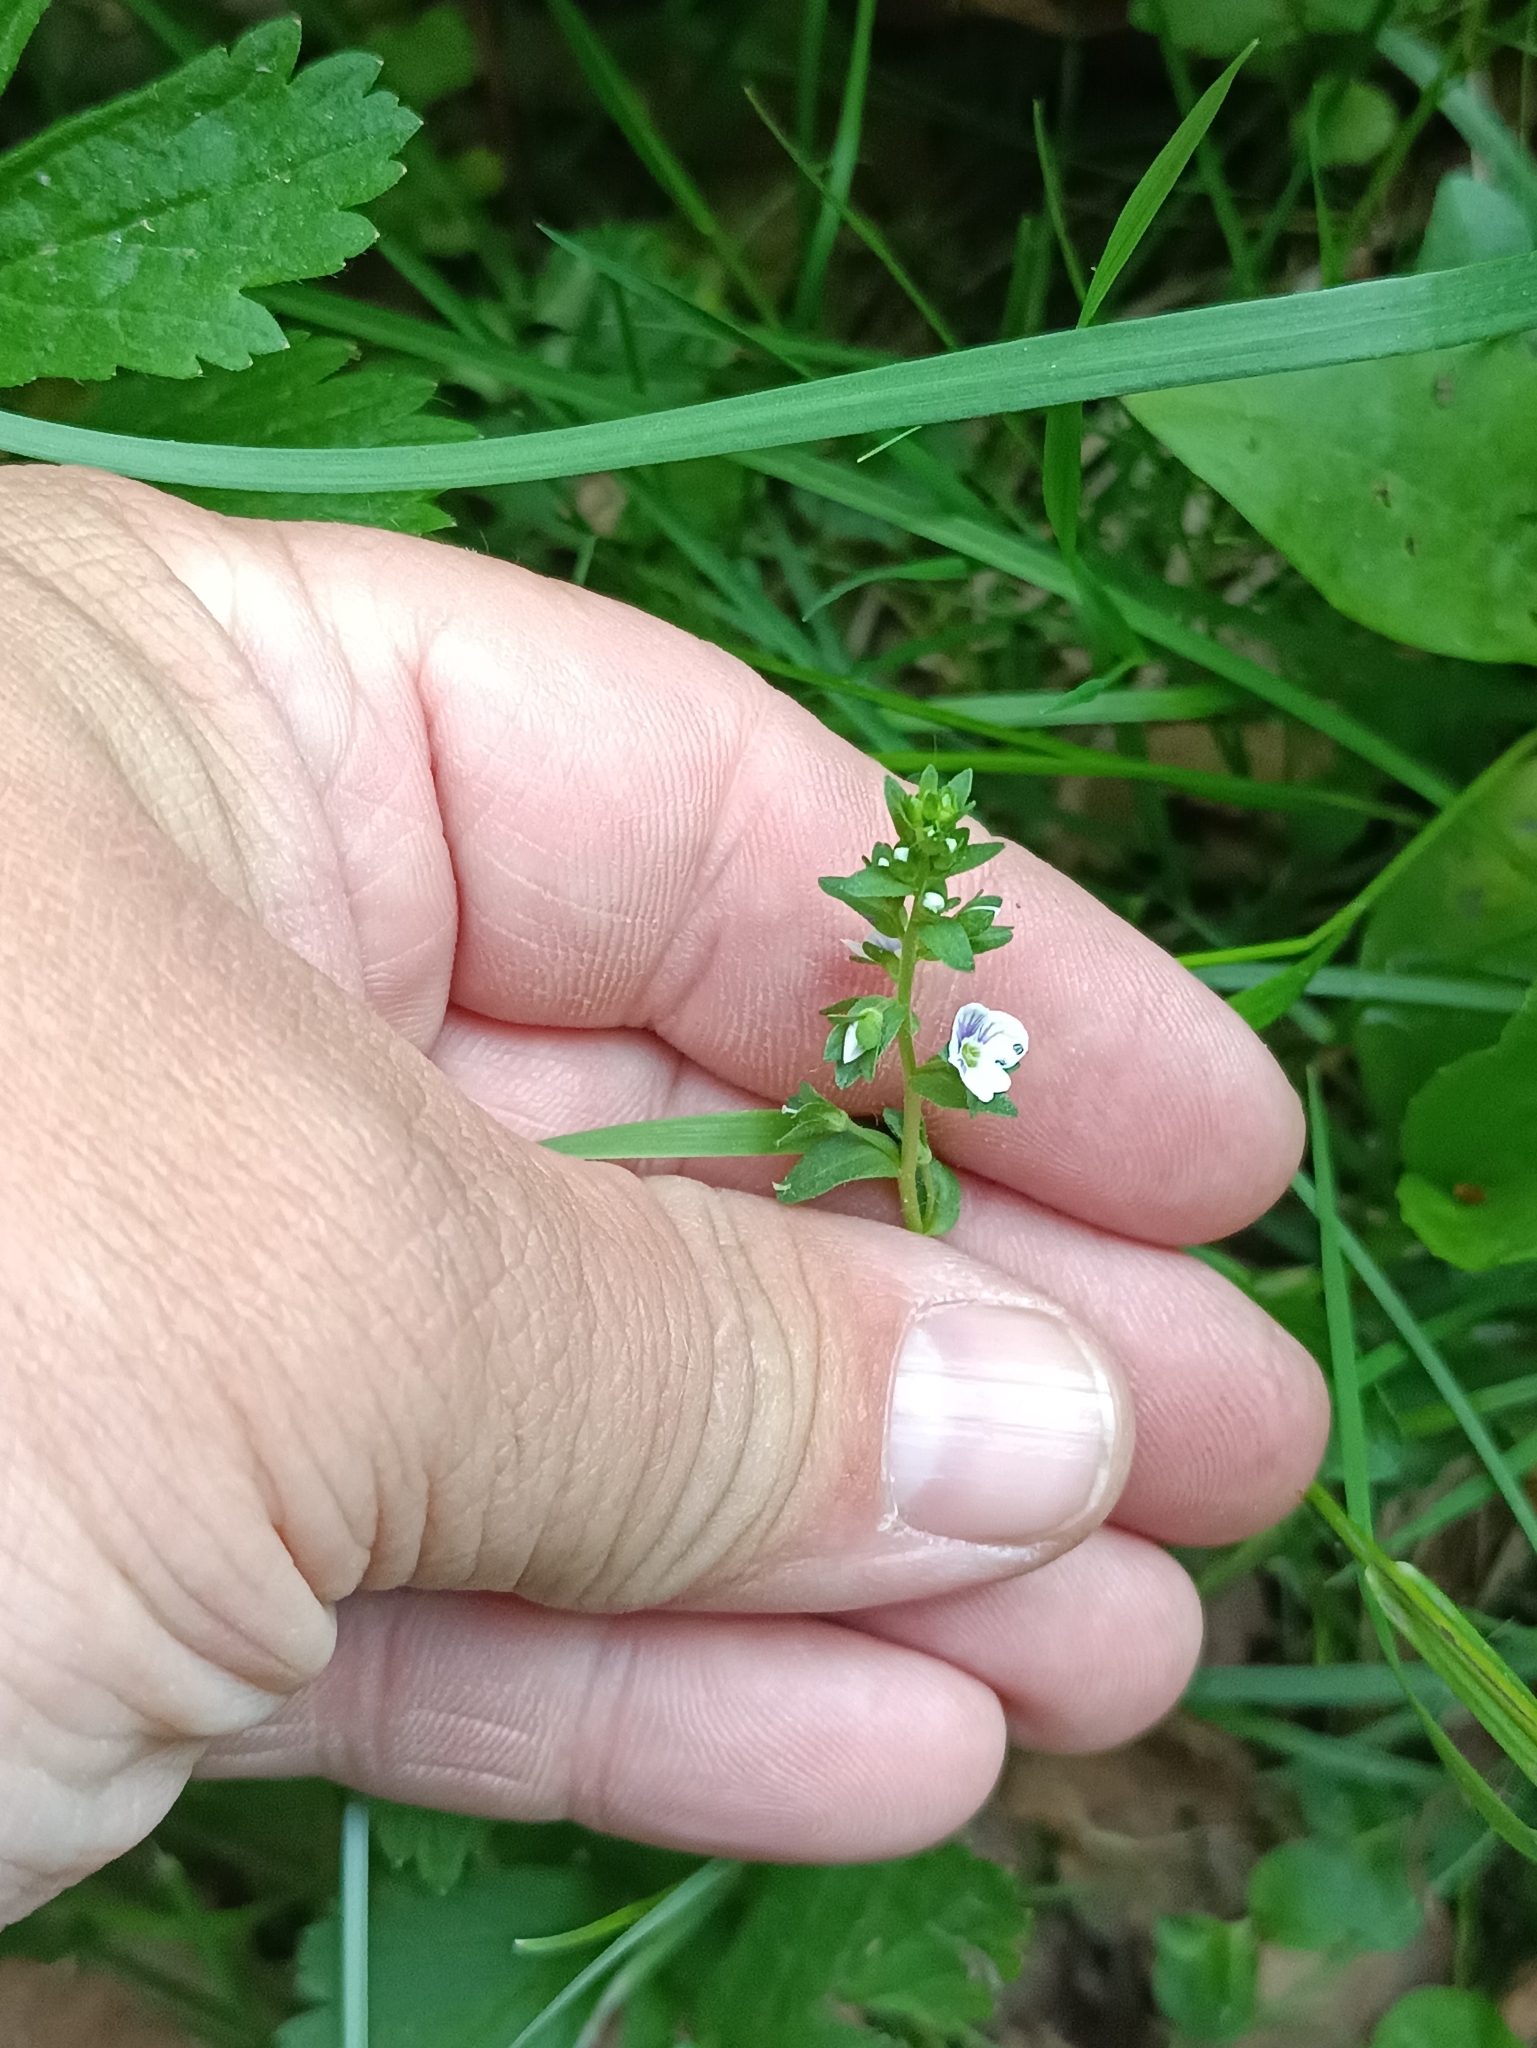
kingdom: Plantae
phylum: Tracheophyta
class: Magnoliopsida
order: Lamiales
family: Plantaginaceae
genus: Veronica
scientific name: Veronica serpyllifolia
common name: Thyme-leaved speedwell
